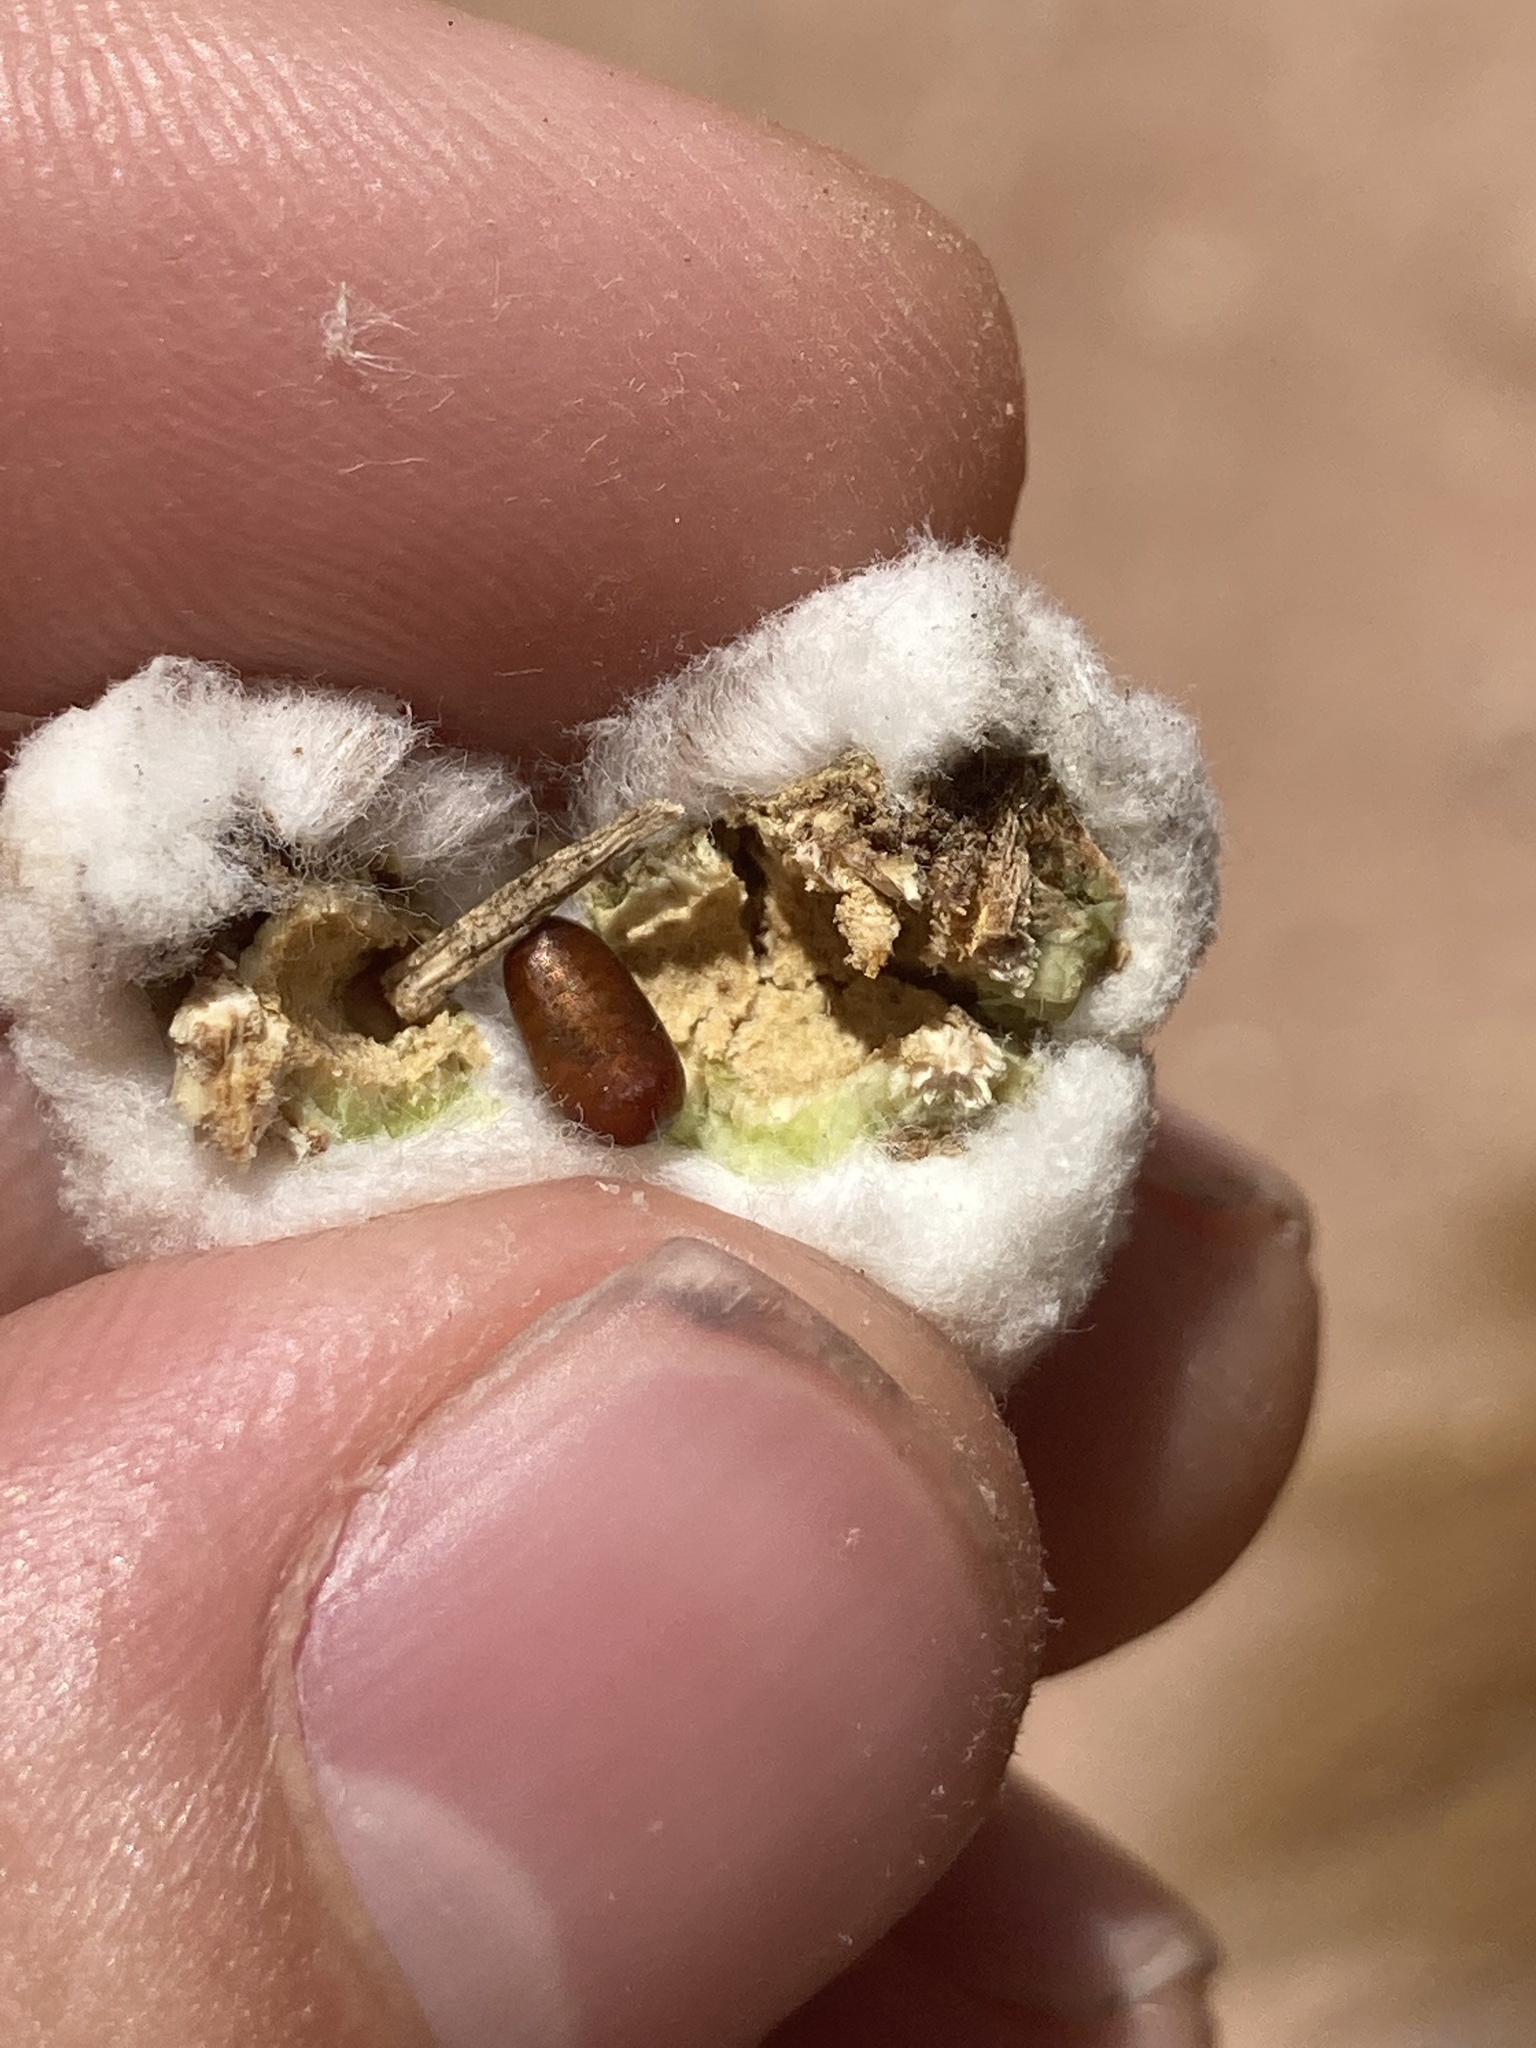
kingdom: Animalia
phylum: Arthropoda
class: Insecta
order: Diptera
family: Tephritidae
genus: Aciurina
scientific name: Aciurina bigeloviae
